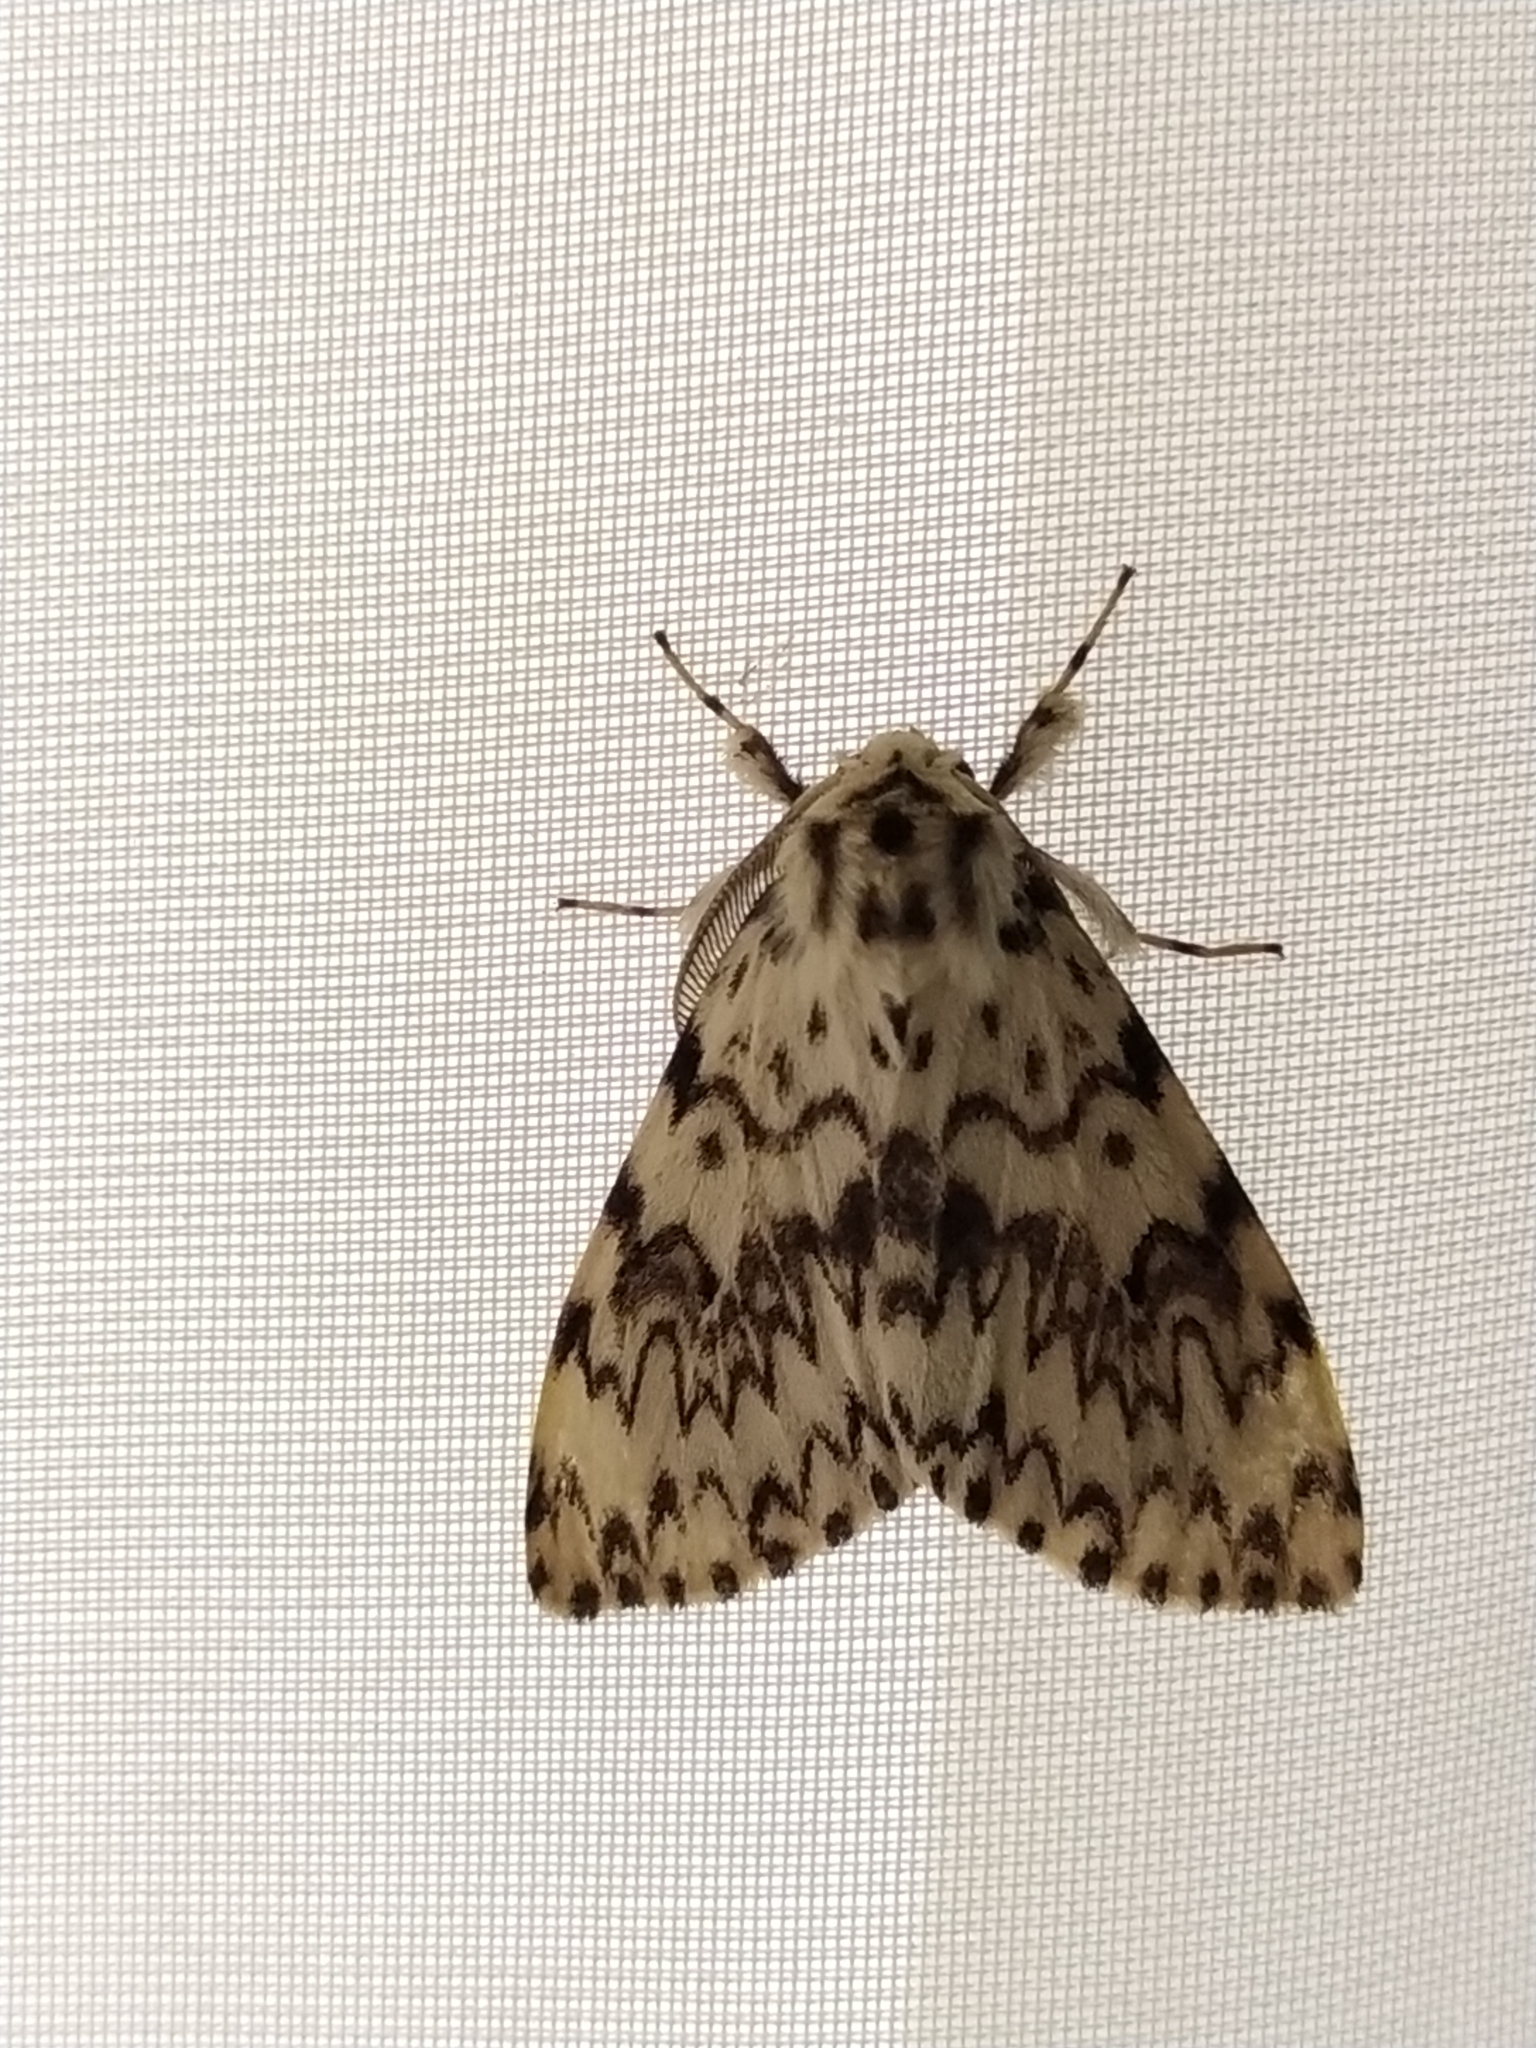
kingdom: Animalia
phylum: Arthropoda
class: Insecta
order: Lepidoptera
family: Erebidae
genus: Lymantria
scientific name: Lymantria monacha
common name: Black arches
